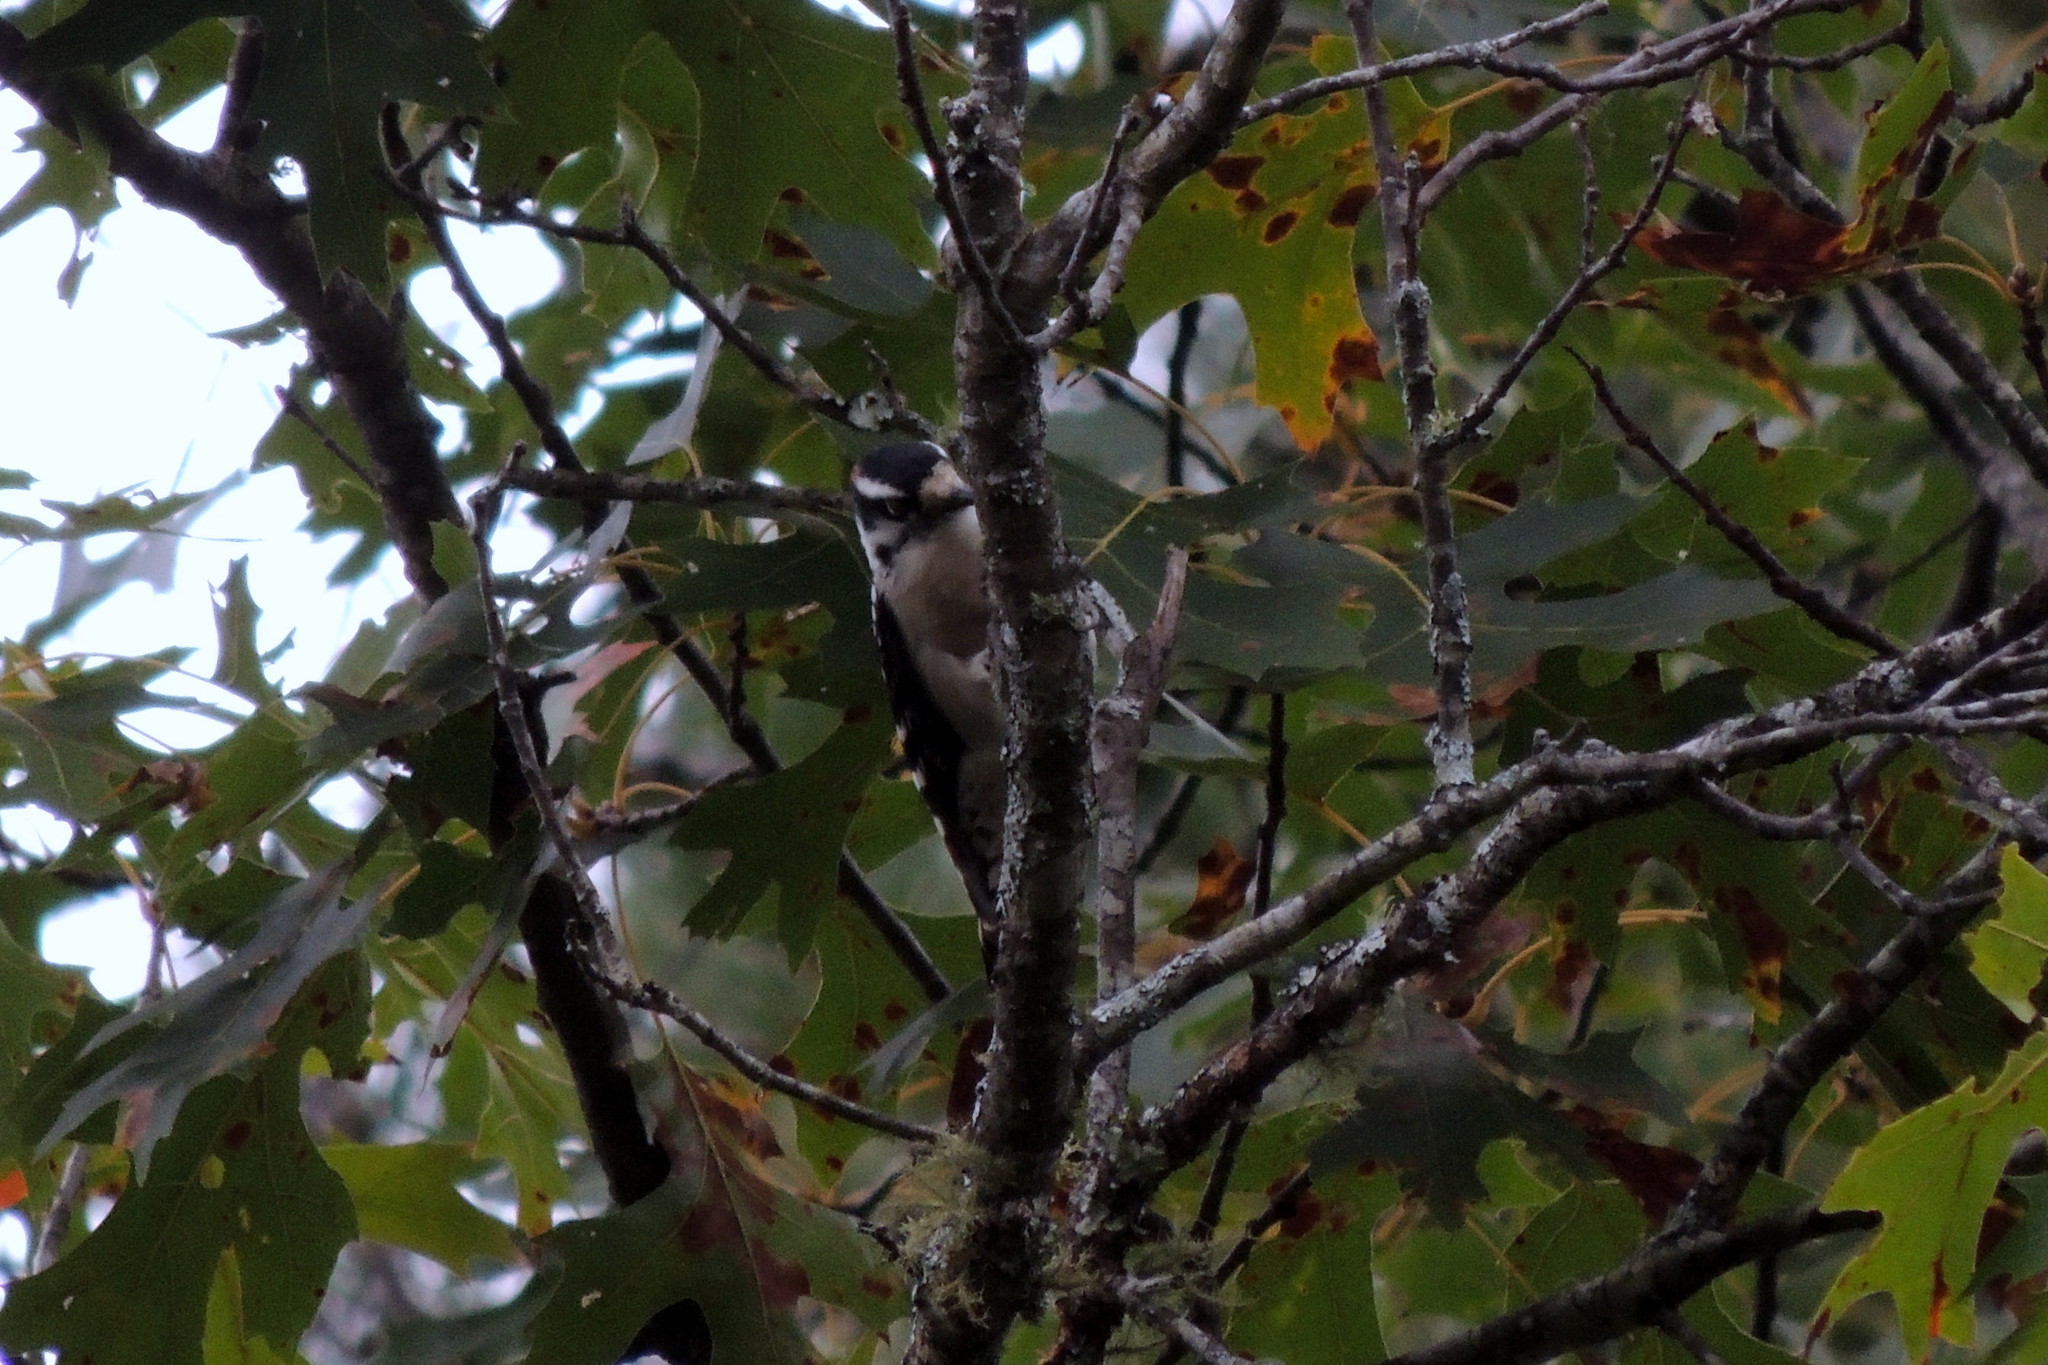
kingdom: Animalia
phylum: Chordata
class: Aves
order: Piciformes
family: Picidae
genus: Dryobates
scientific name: Dryobates pubescens
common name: Downy woodpecker
